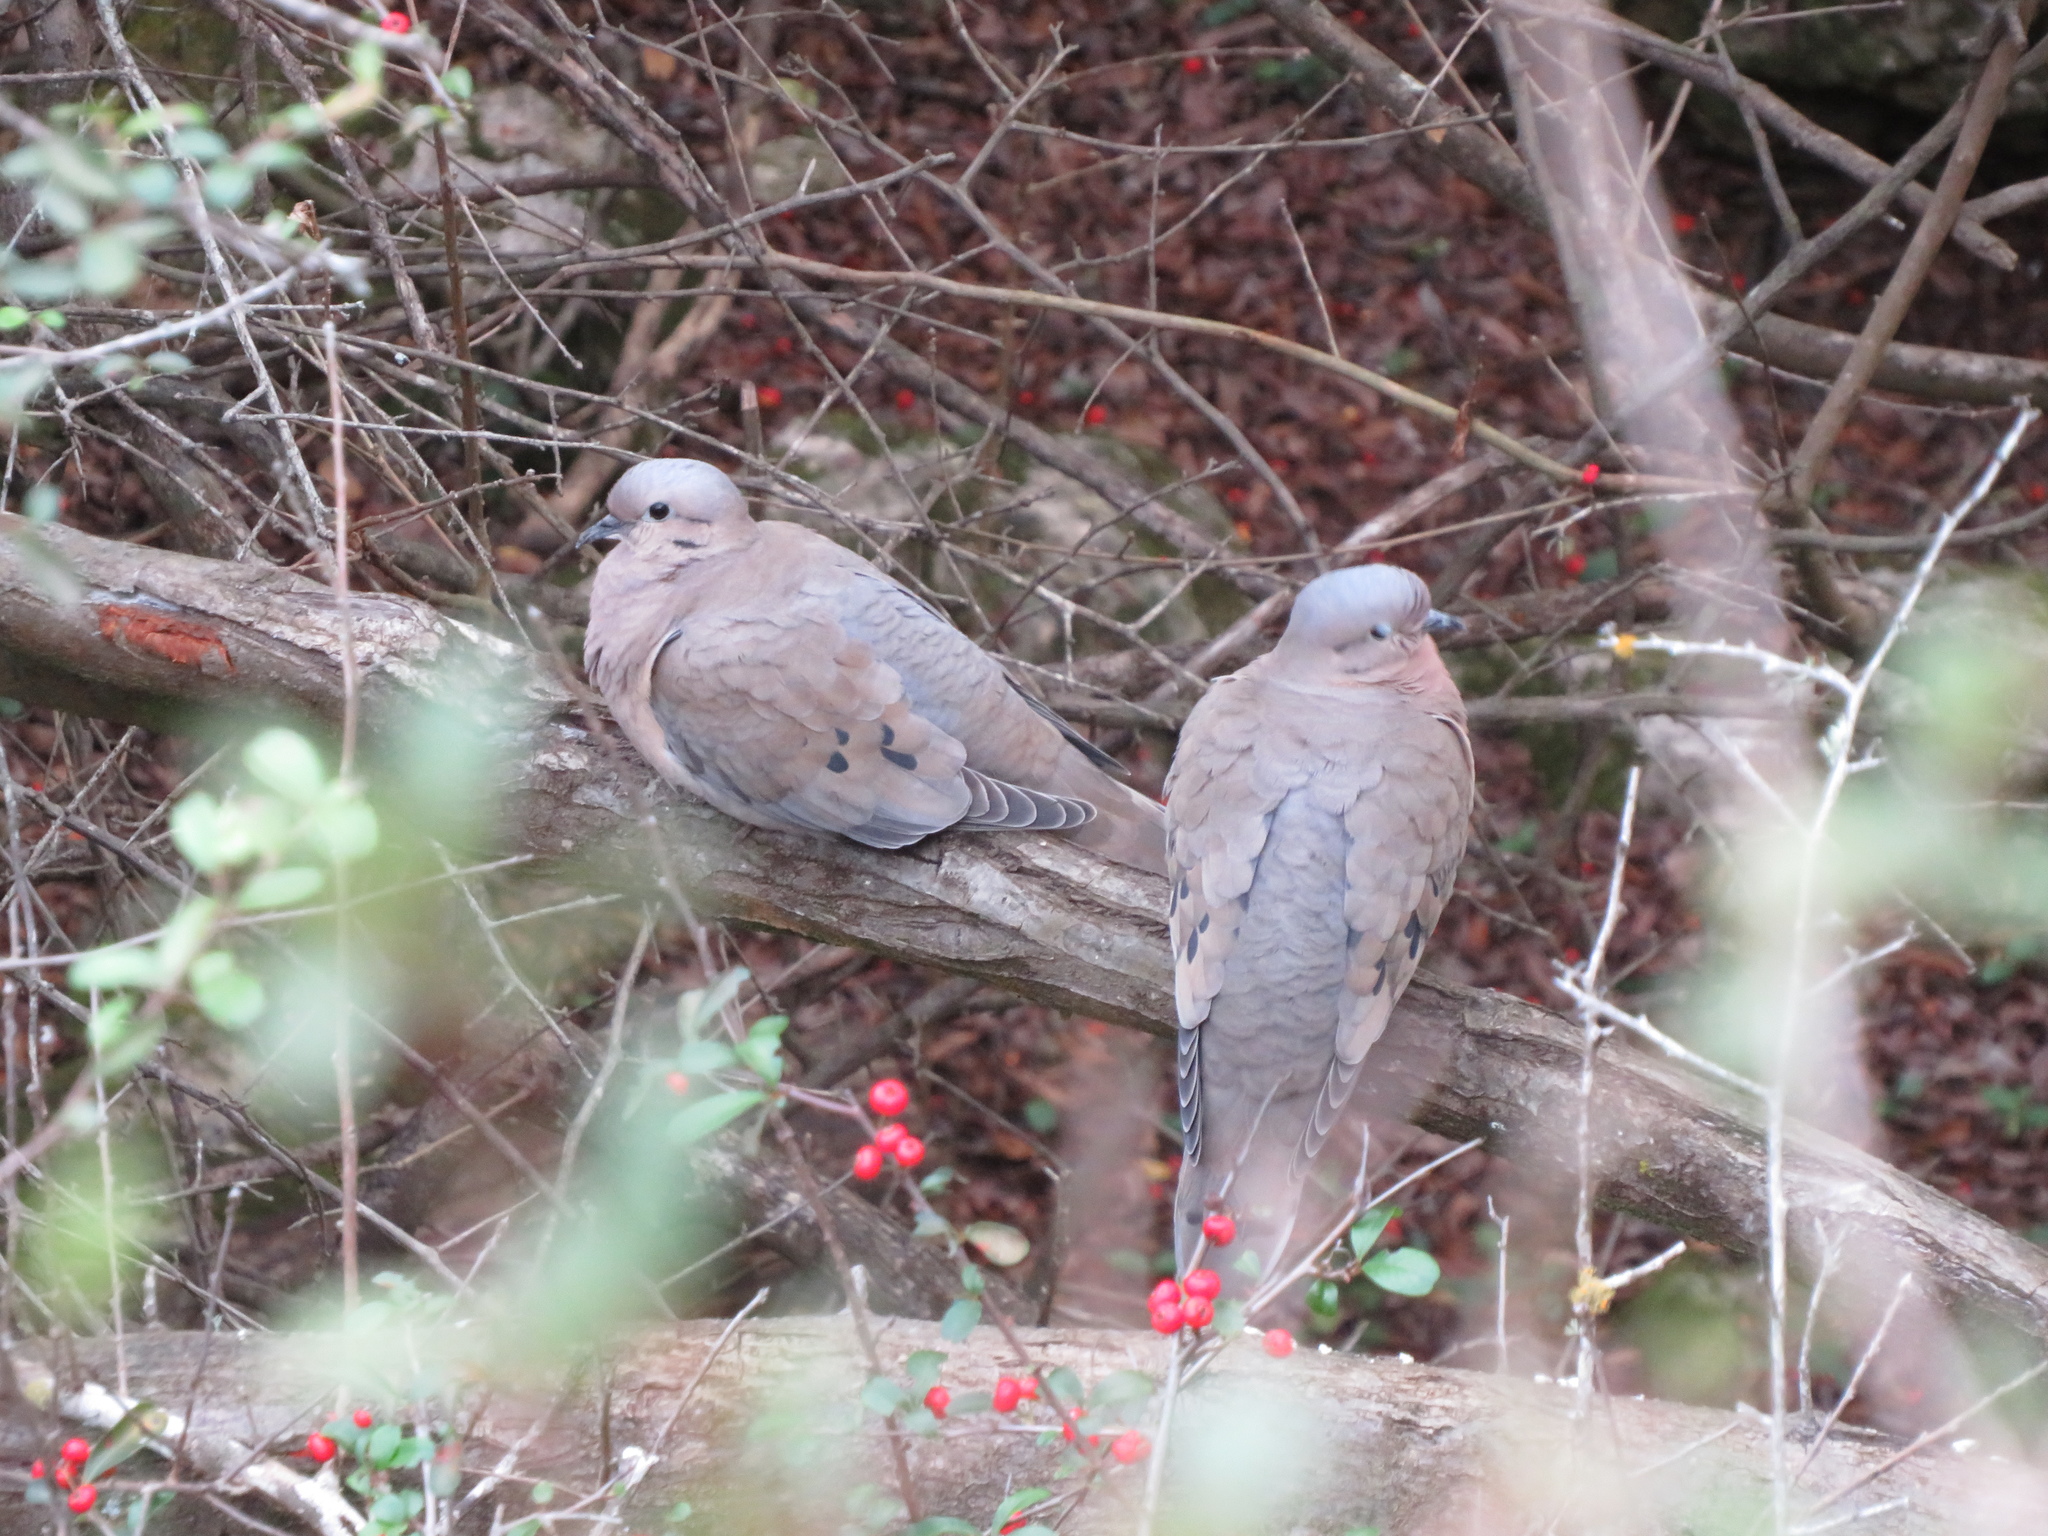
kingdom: Animalia
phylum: Chordata
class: Aves
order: Columbiformes
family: Columbidae
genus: Zenaida
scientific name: Zenaida auriculata
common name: Eared dove
